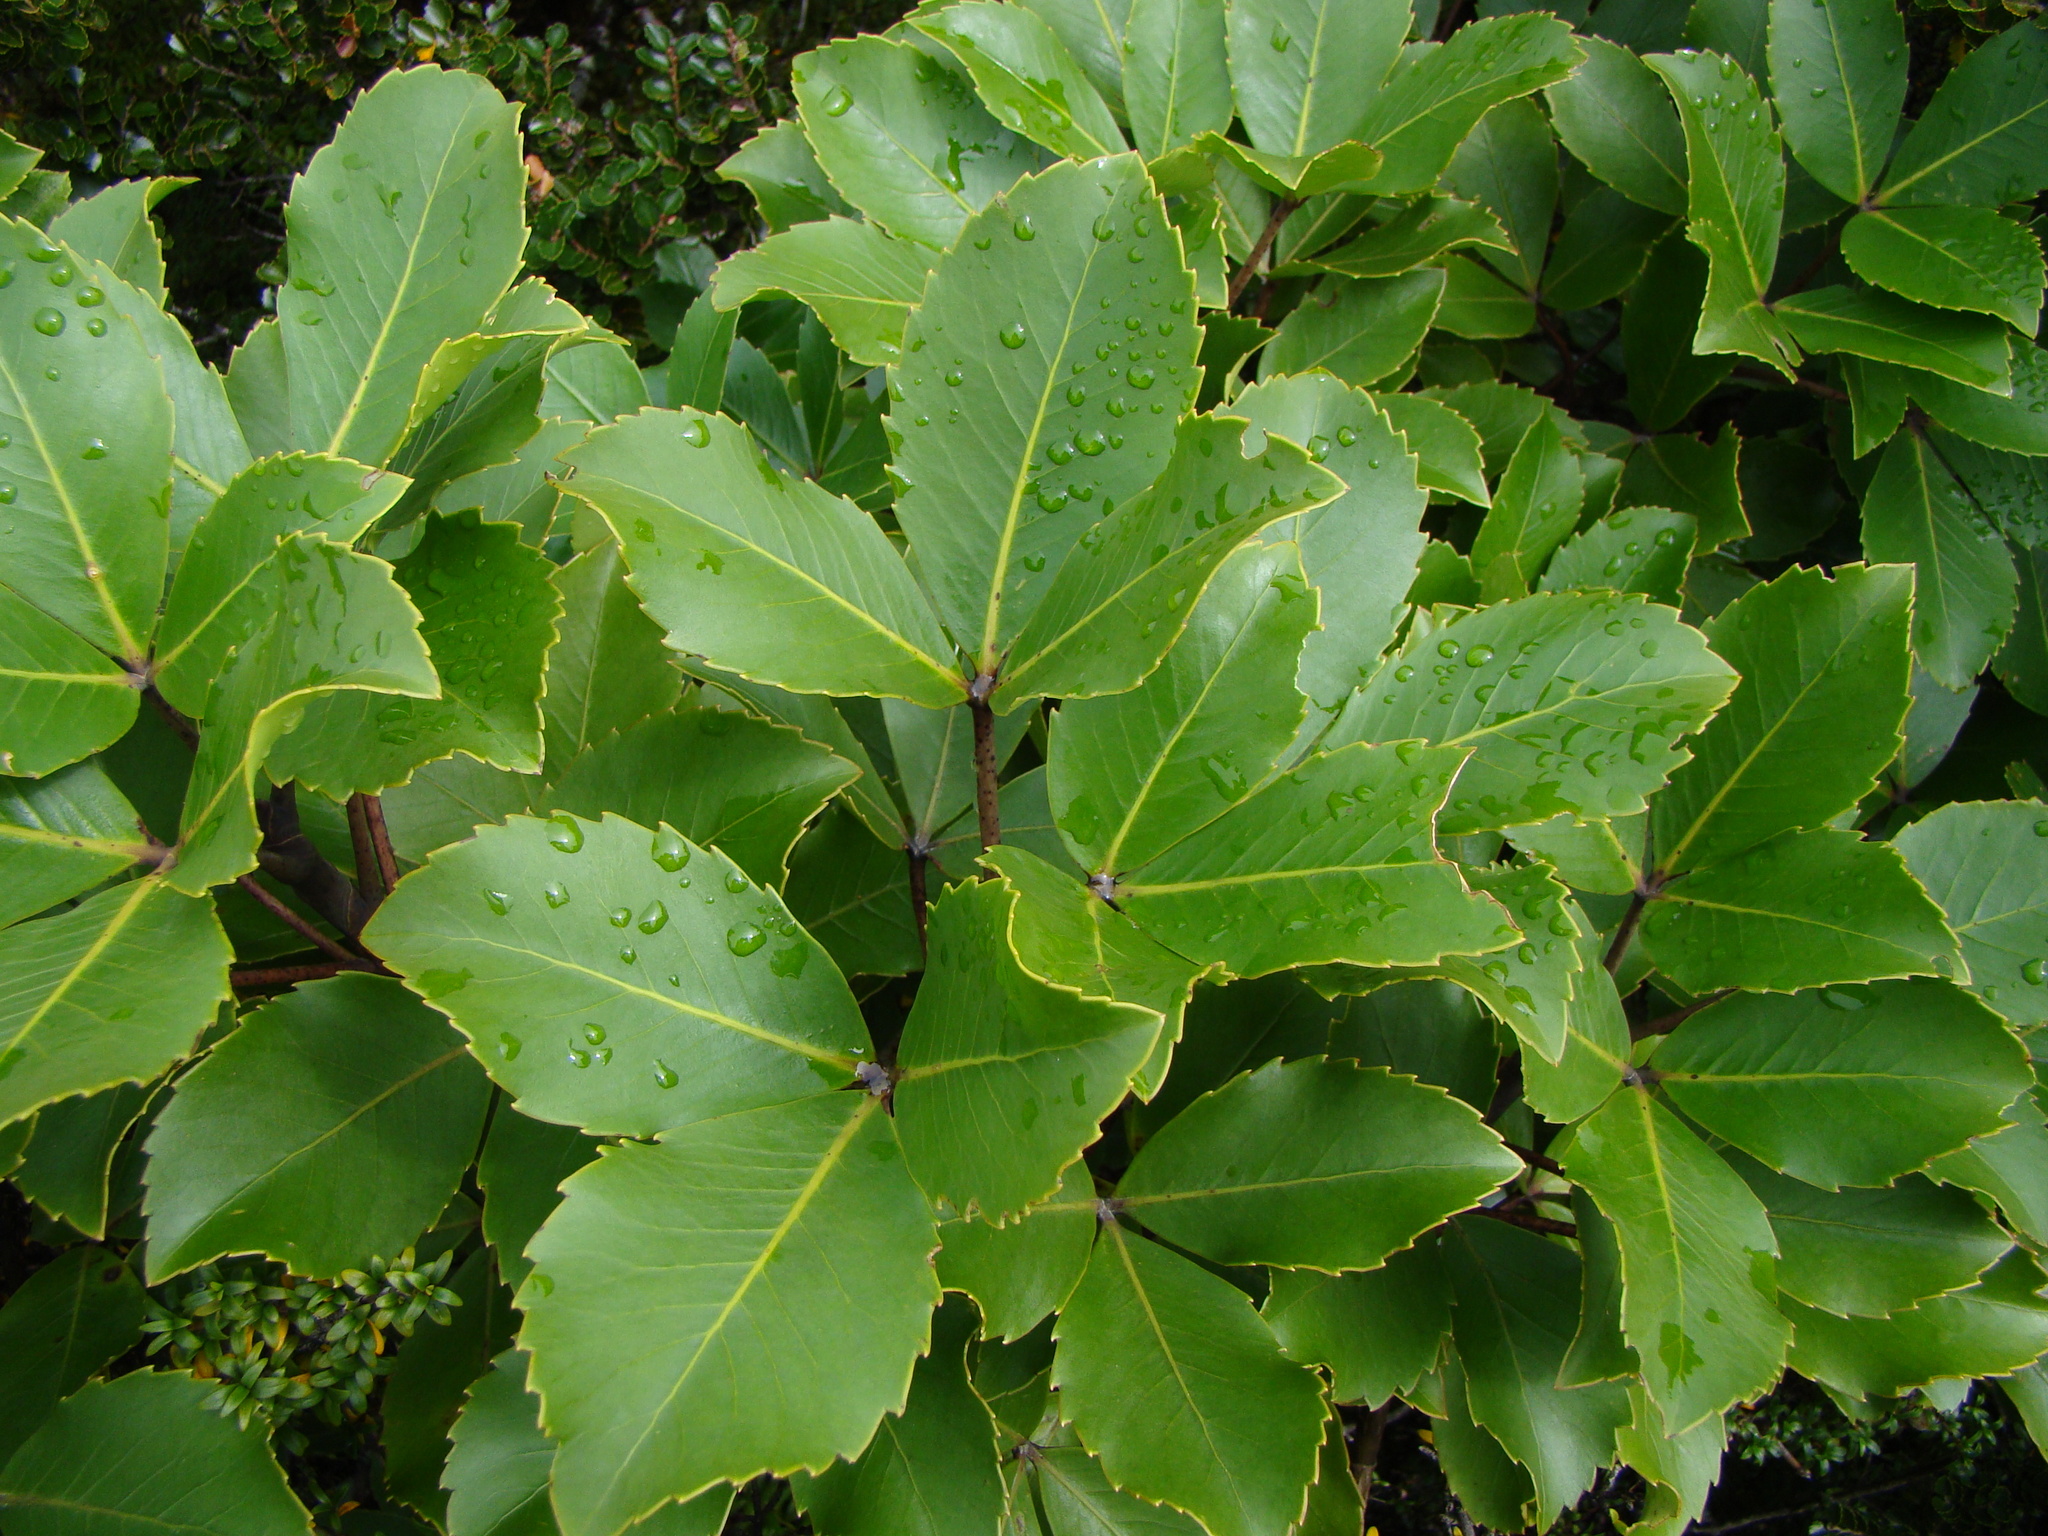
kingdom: Plantae
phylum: Tracheophyta
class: Magnoliopsida
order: Apiales
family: Araliaceae
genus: Neopanax
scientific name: Neopanax colensoi
